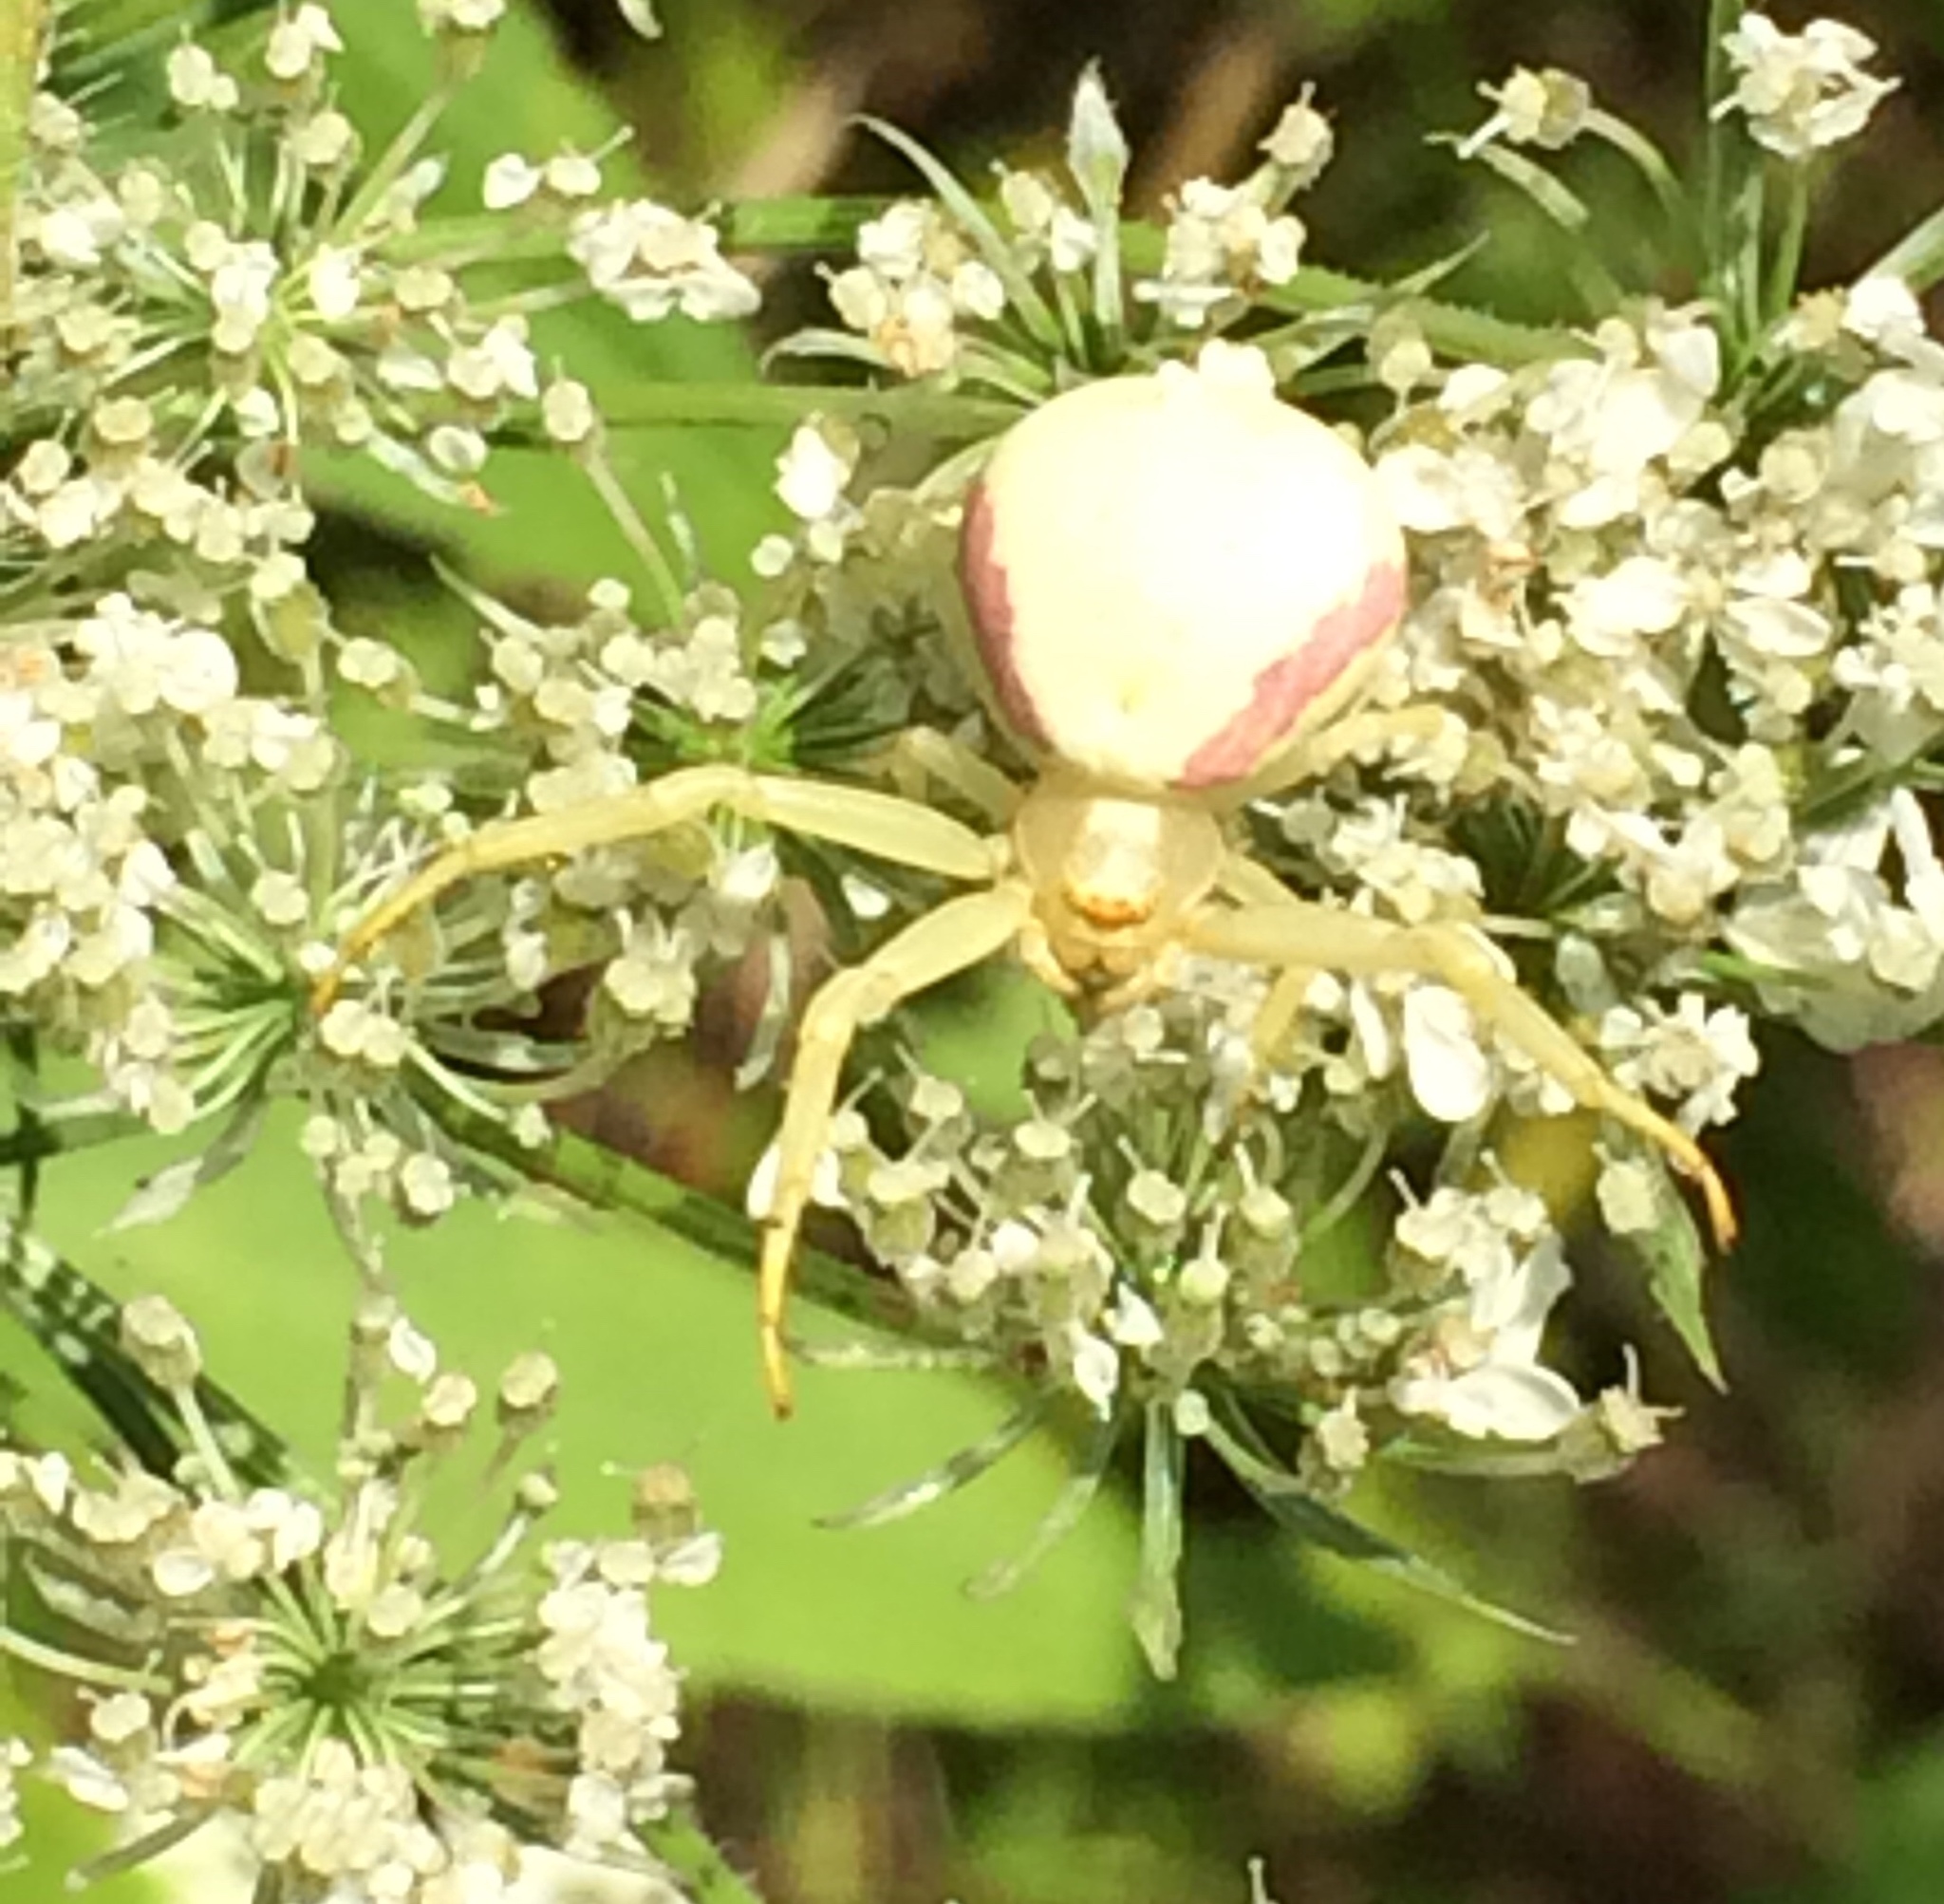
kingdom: Animalia
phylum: Arthropoda
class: Arachnida
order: Araneae
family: Thomisidae
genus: Misumena
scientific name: Misumena vatia
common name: Goldenrod crab spider
